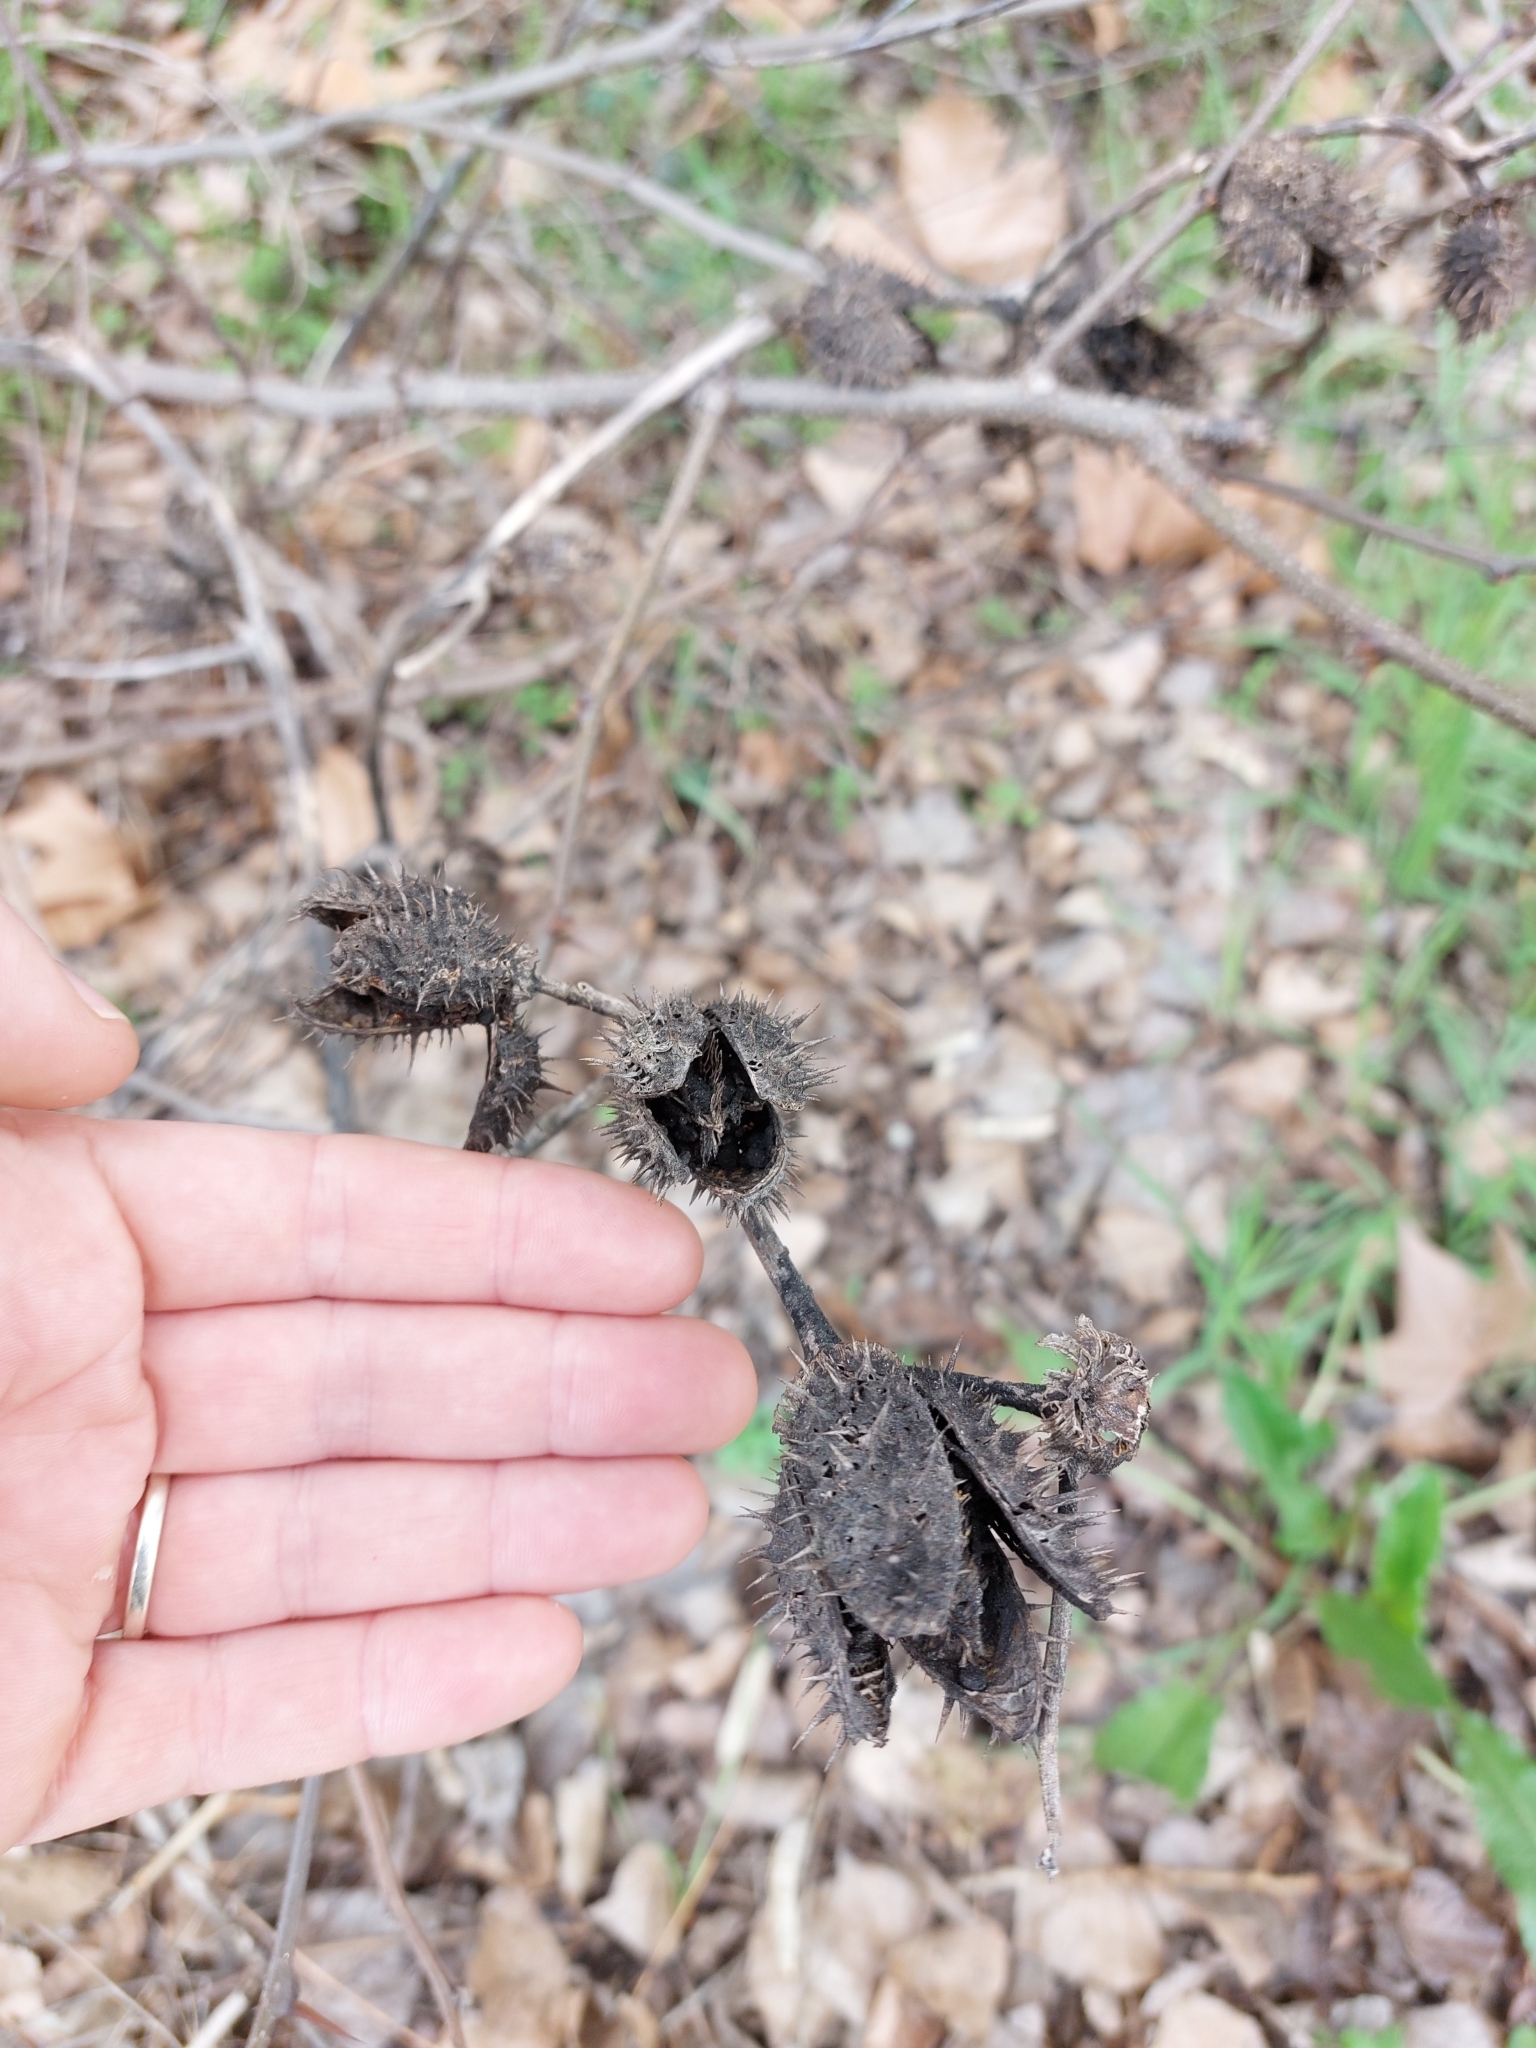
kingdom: Plantae
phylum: Tracheophyta
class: Magnoliopsida
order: Solanales
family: Solanaceae
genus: Datura
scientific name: Datura stramonium
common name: Thorn-apple
